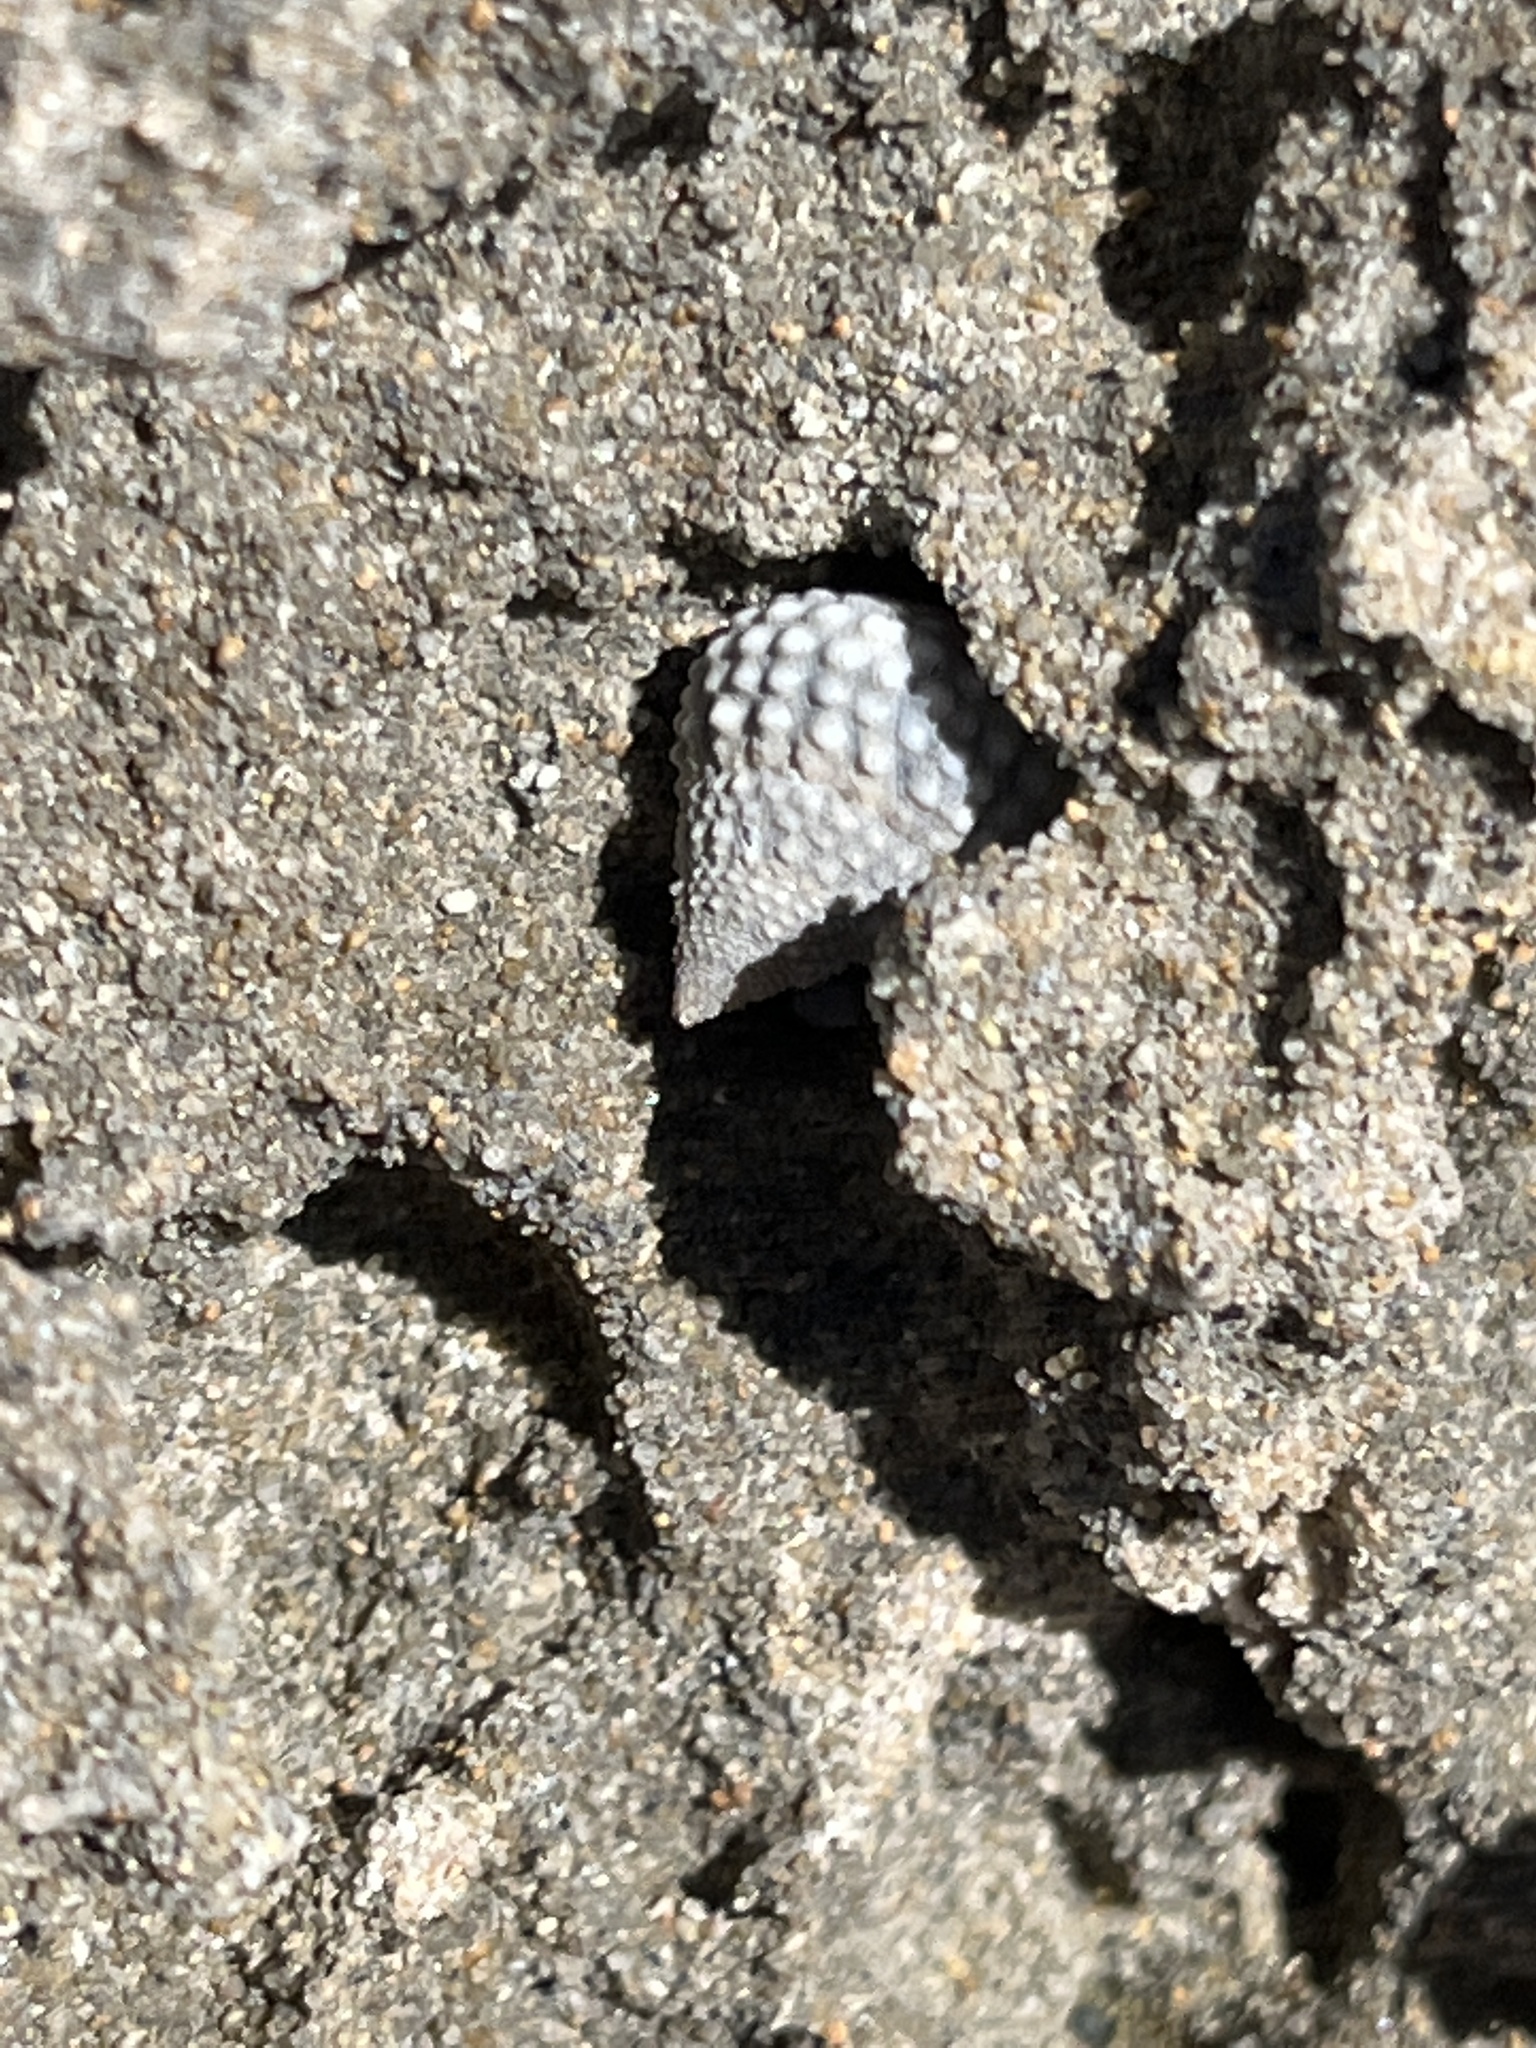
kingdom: Animalia
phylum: Mollusca
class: Gastropoda
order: Littorinimorpha
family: Littorinidae
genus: Cenchritis
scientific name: Cenchritis muricatus
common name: Beaded periwinkle
